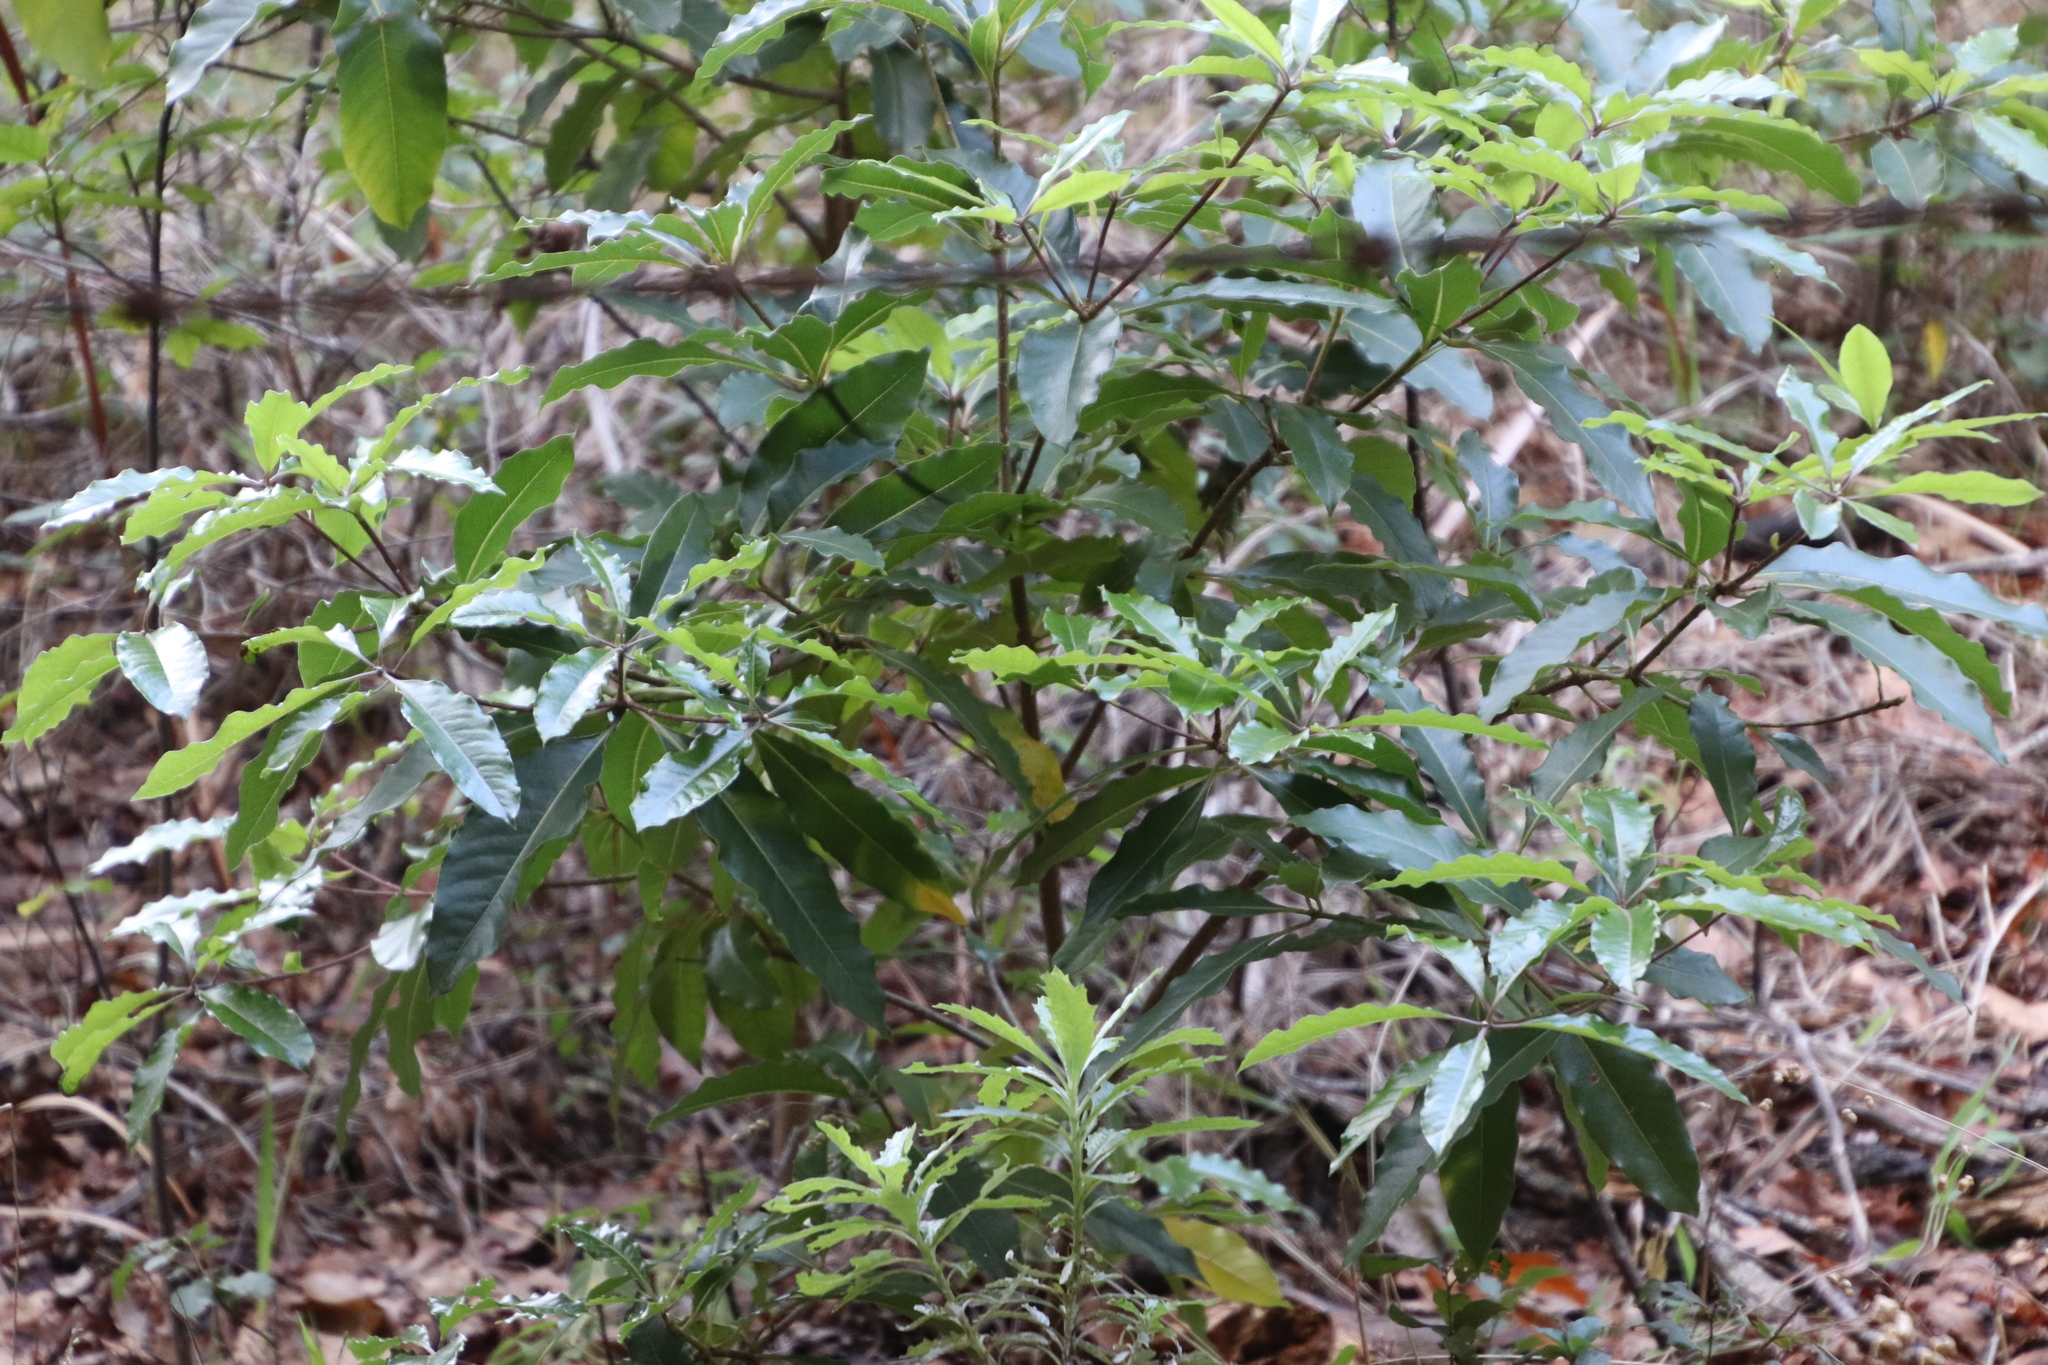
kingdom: Plantae
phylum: Tracheophyta
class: Magnoliopsida
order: Apiales
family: Pittosporaceae
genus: Pittosporum
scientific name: Pittosporum undulatum
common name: Australian cheesewood
